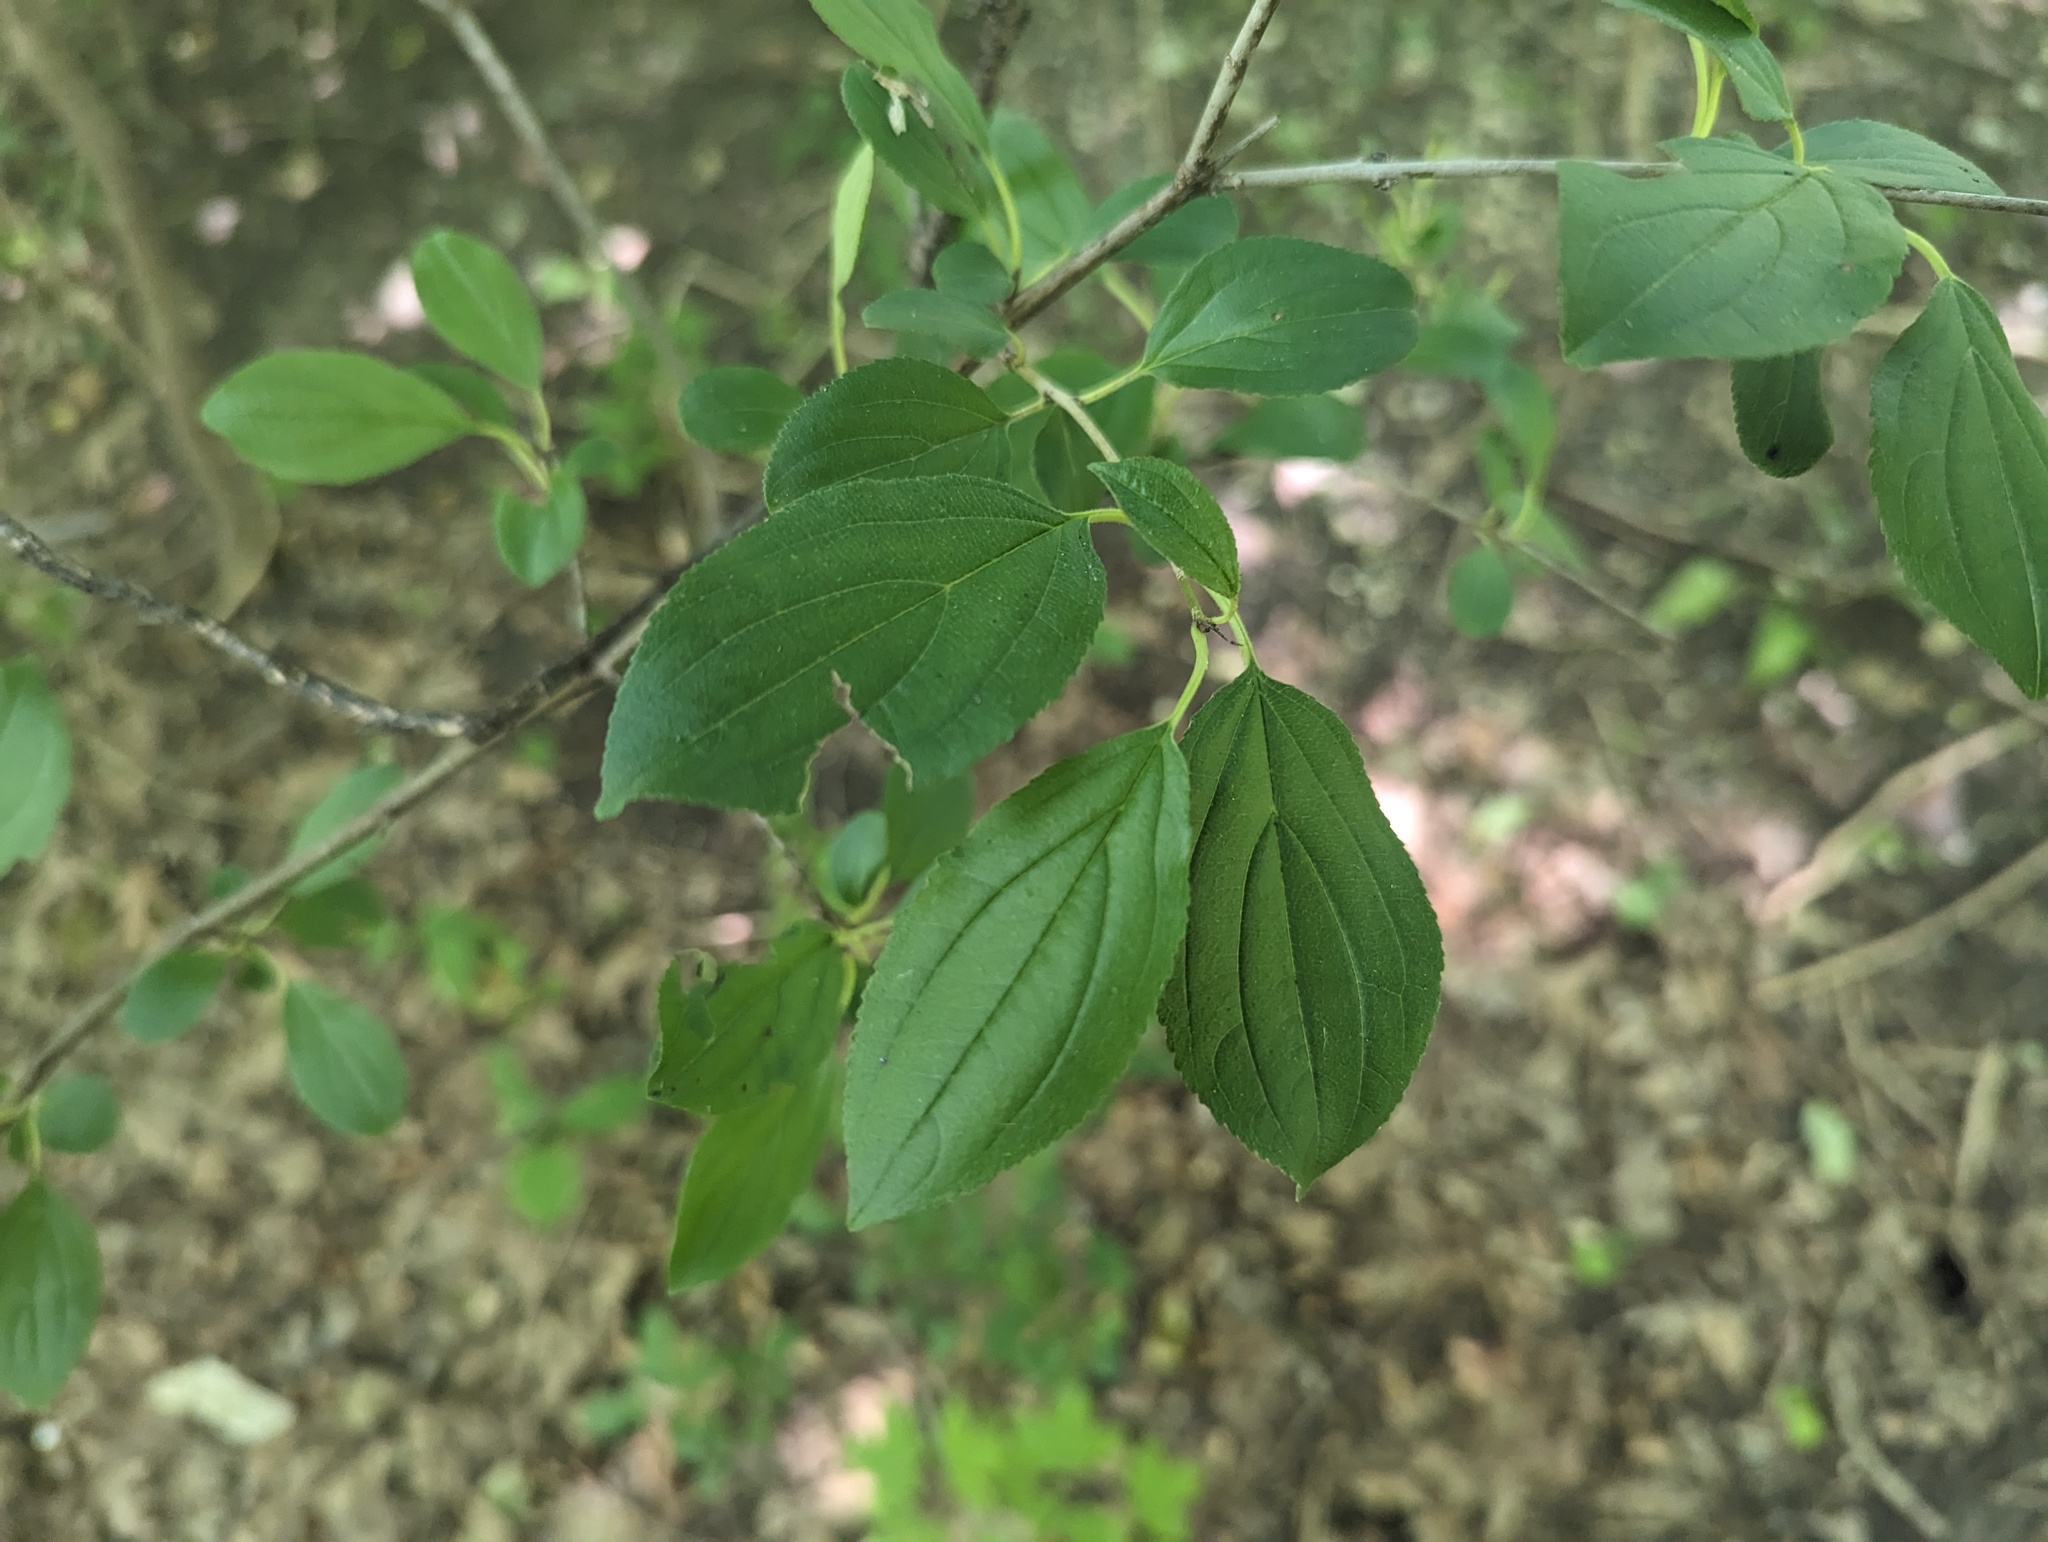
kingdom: Plantae
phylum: Tracheophyta
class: Magnoliopsida
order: Rosales
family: Rhamnaceae
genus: Rhamnus
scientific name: Rhamnus cathartica
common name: Common buckthorn
